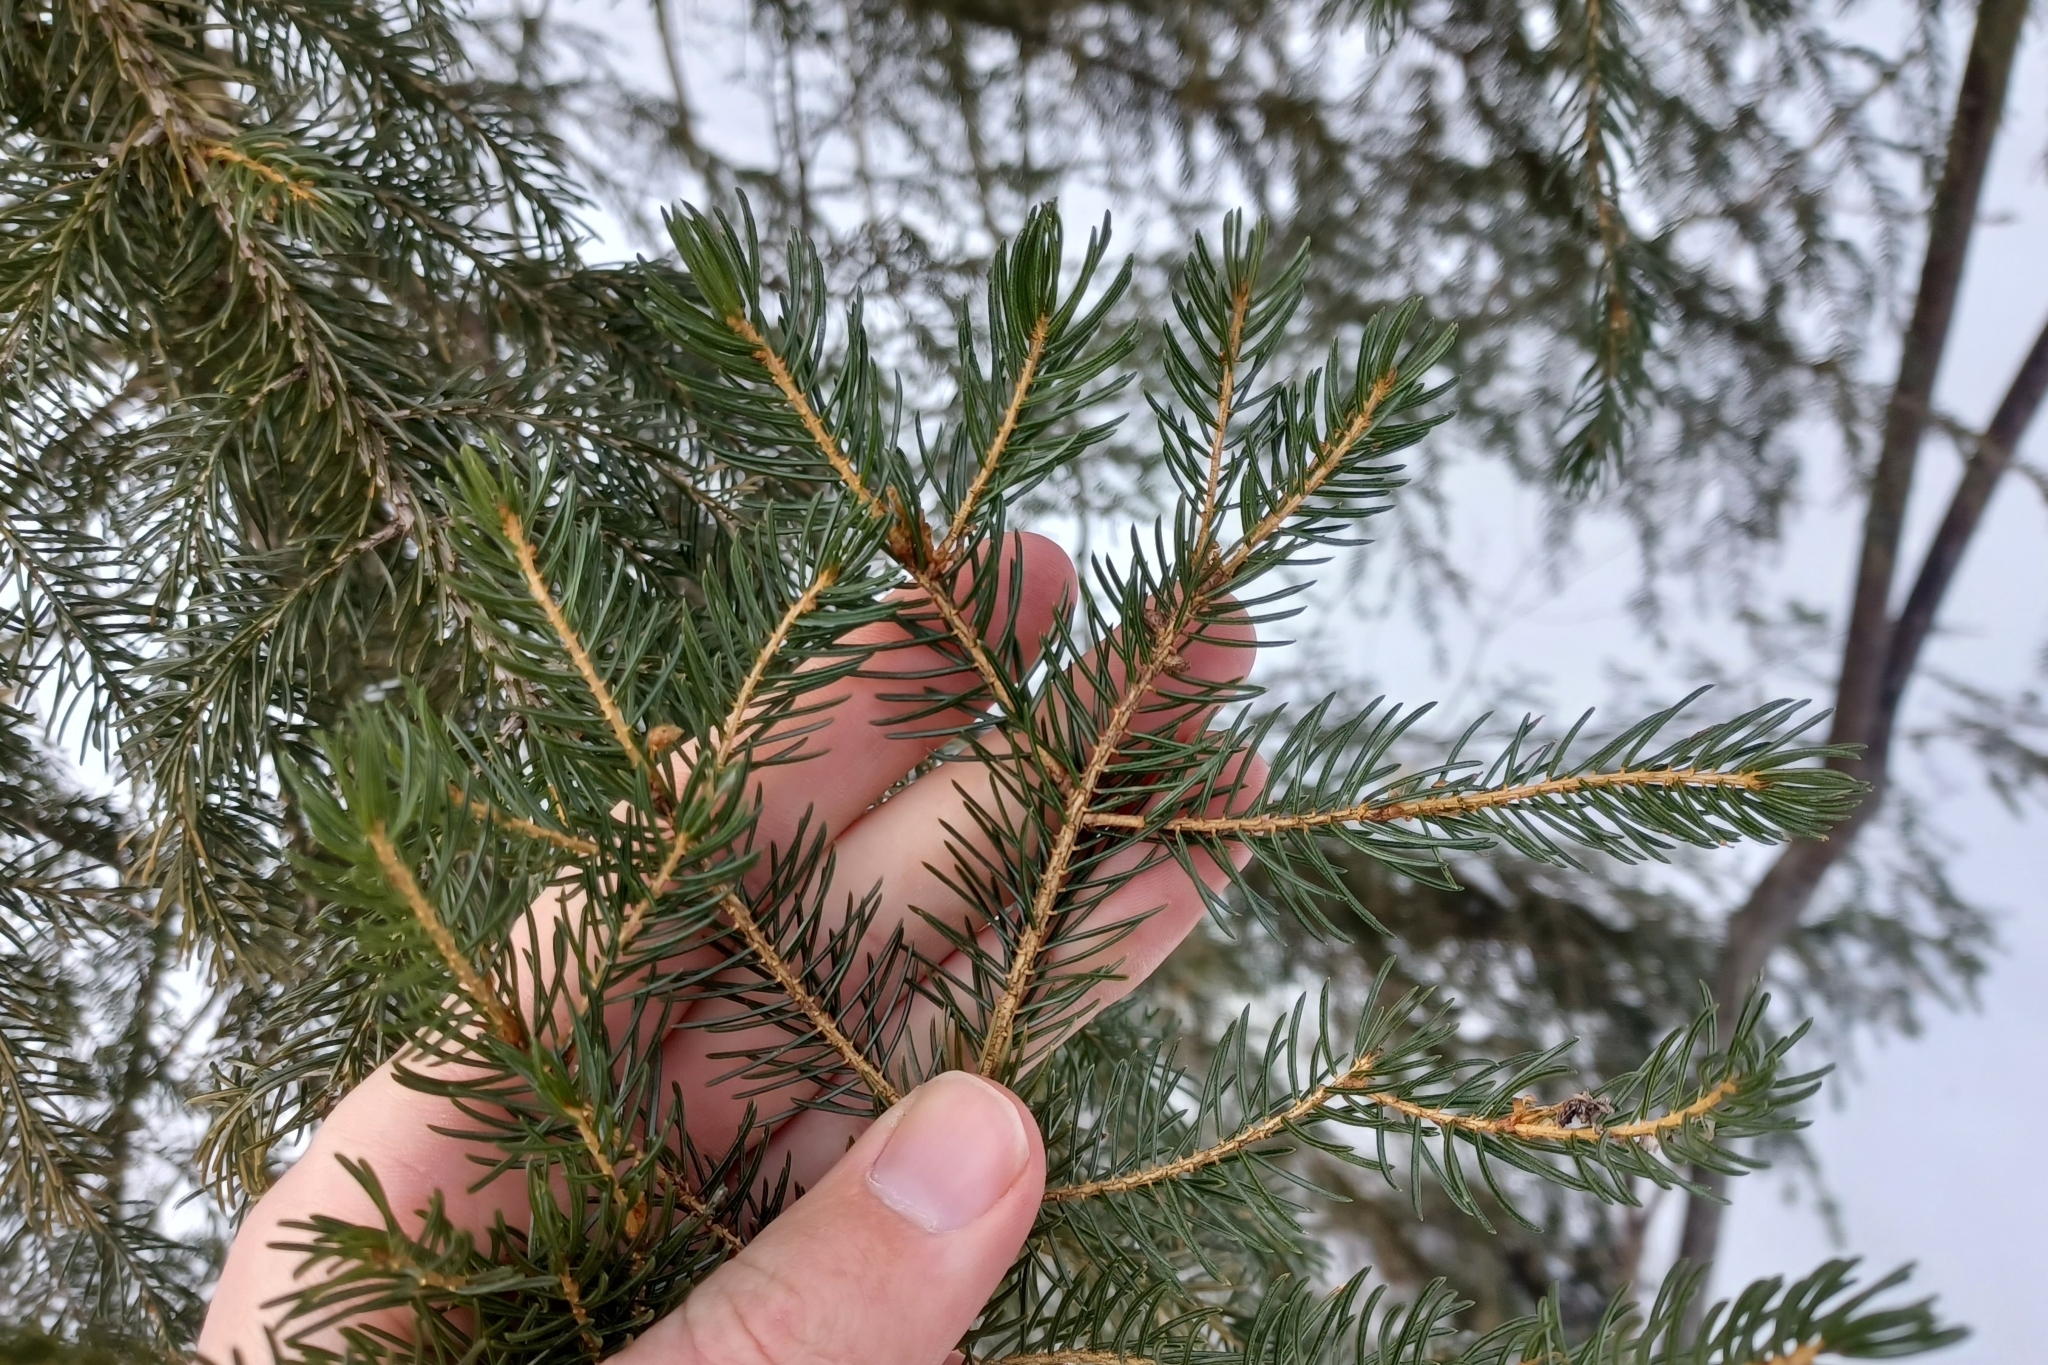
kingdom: Plantae
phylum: Tracheophyta
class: Pinopsida
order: Pinales
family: Pinaceae
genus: Picea
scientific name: Picea rubens
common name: Red spruce
